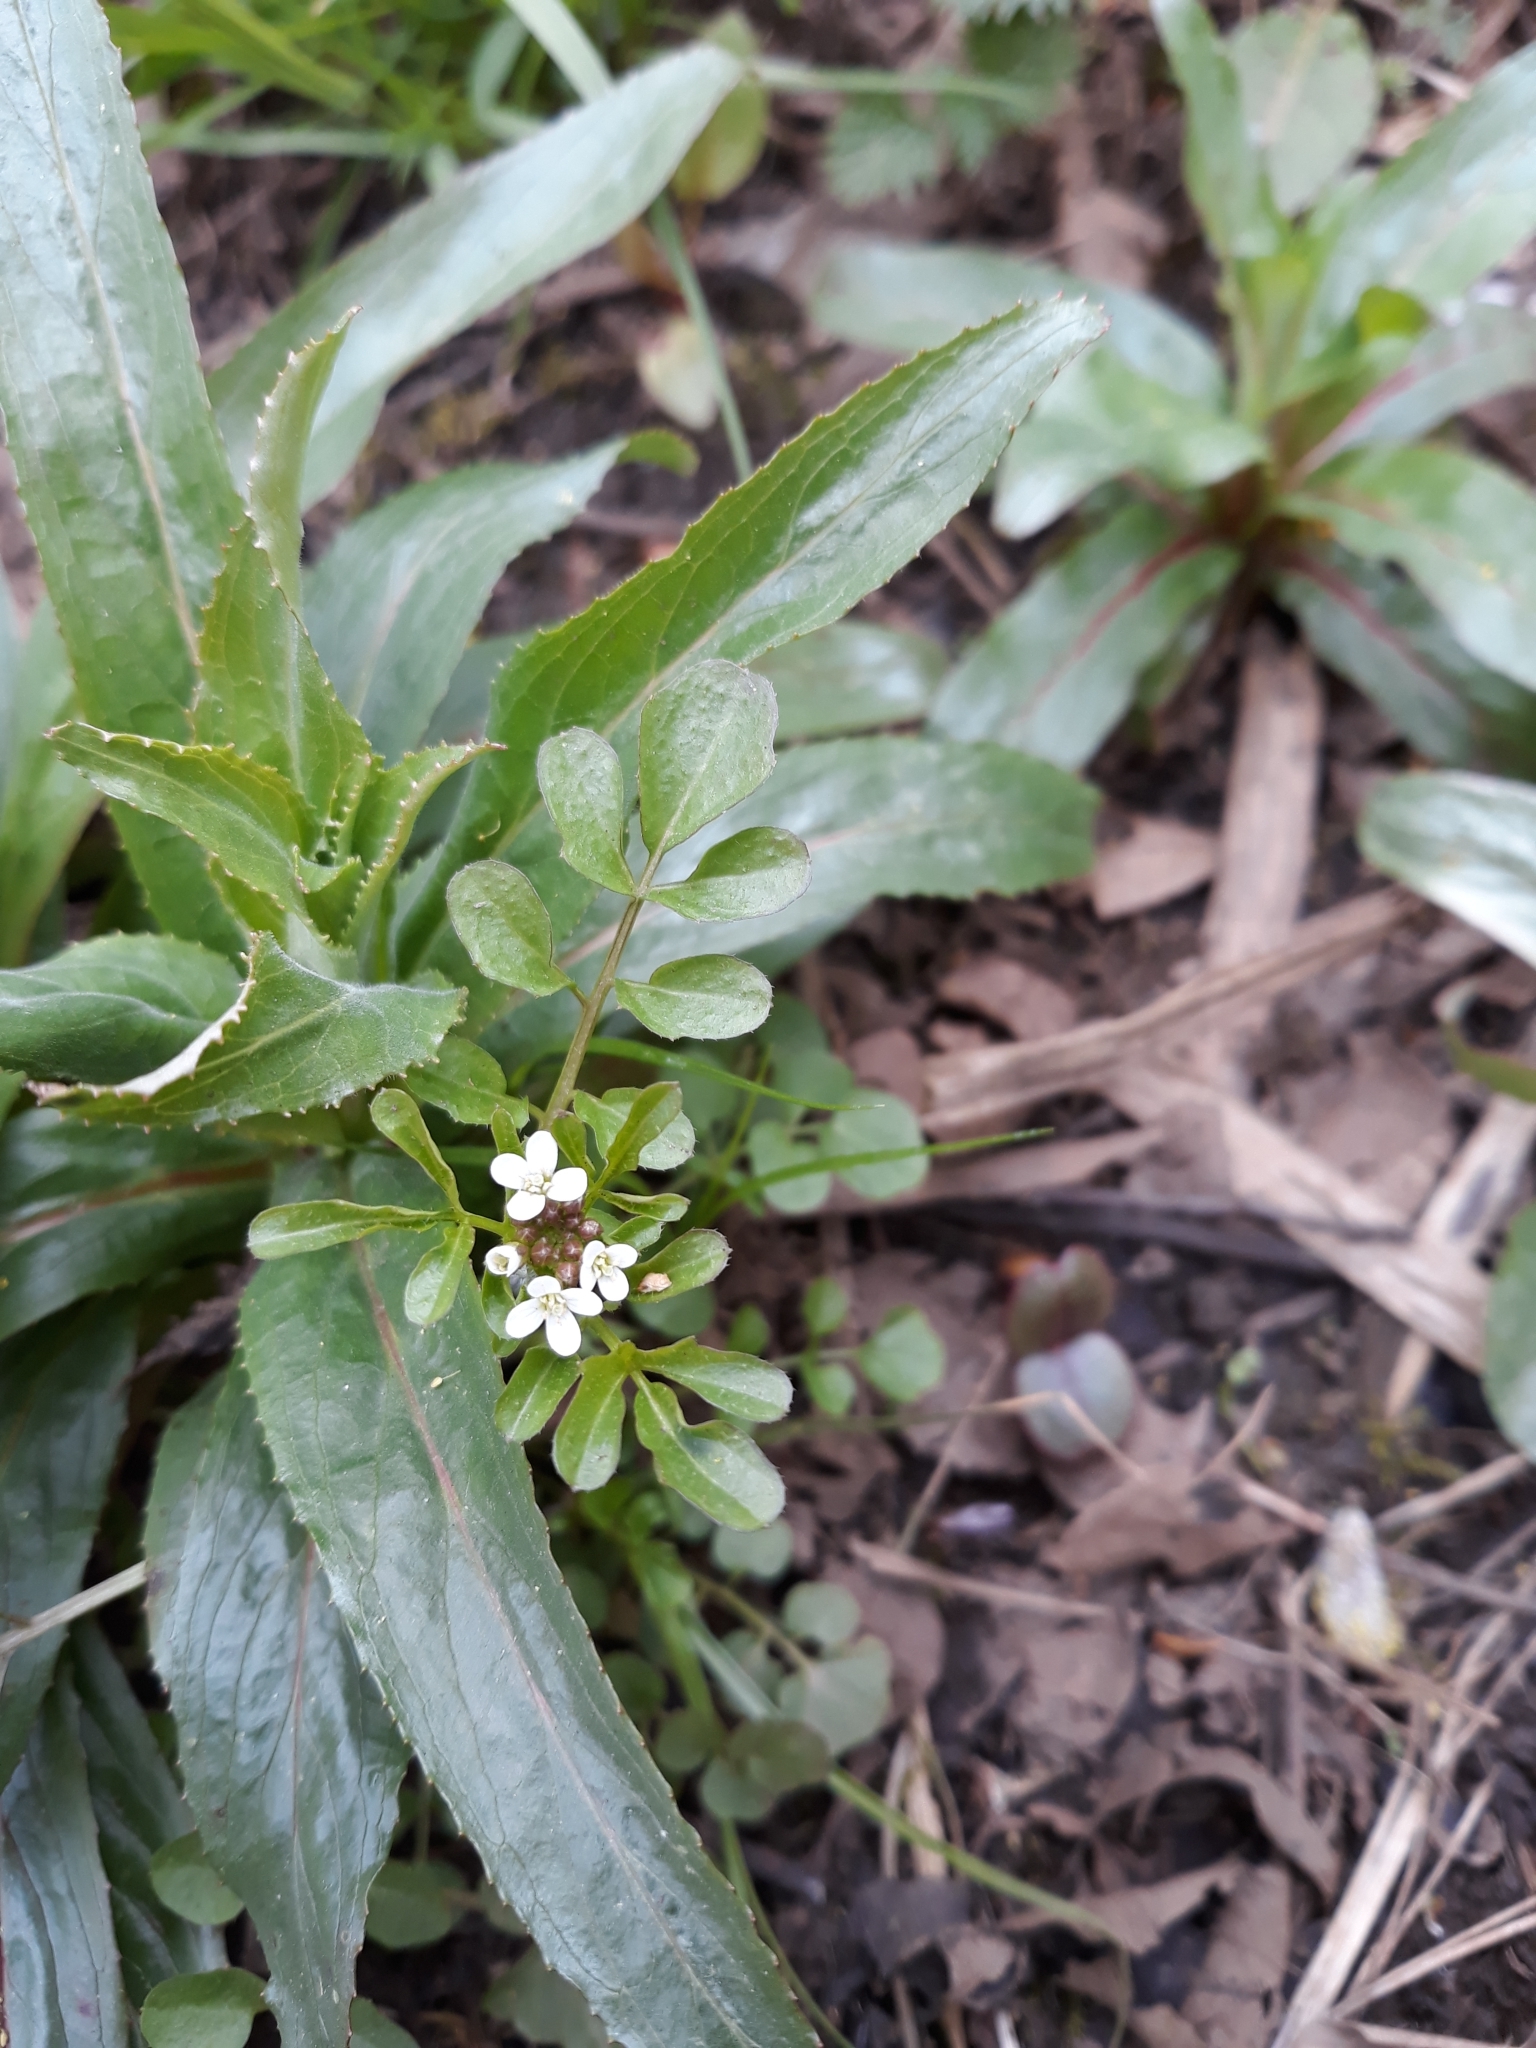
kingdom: Plantae
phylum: Tracheophyta
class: Magnoliopsida
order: Brassicales
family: Brassicaceae
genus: Cardamine
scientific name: Cardamine hirsuta
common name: Hairy bittercress
